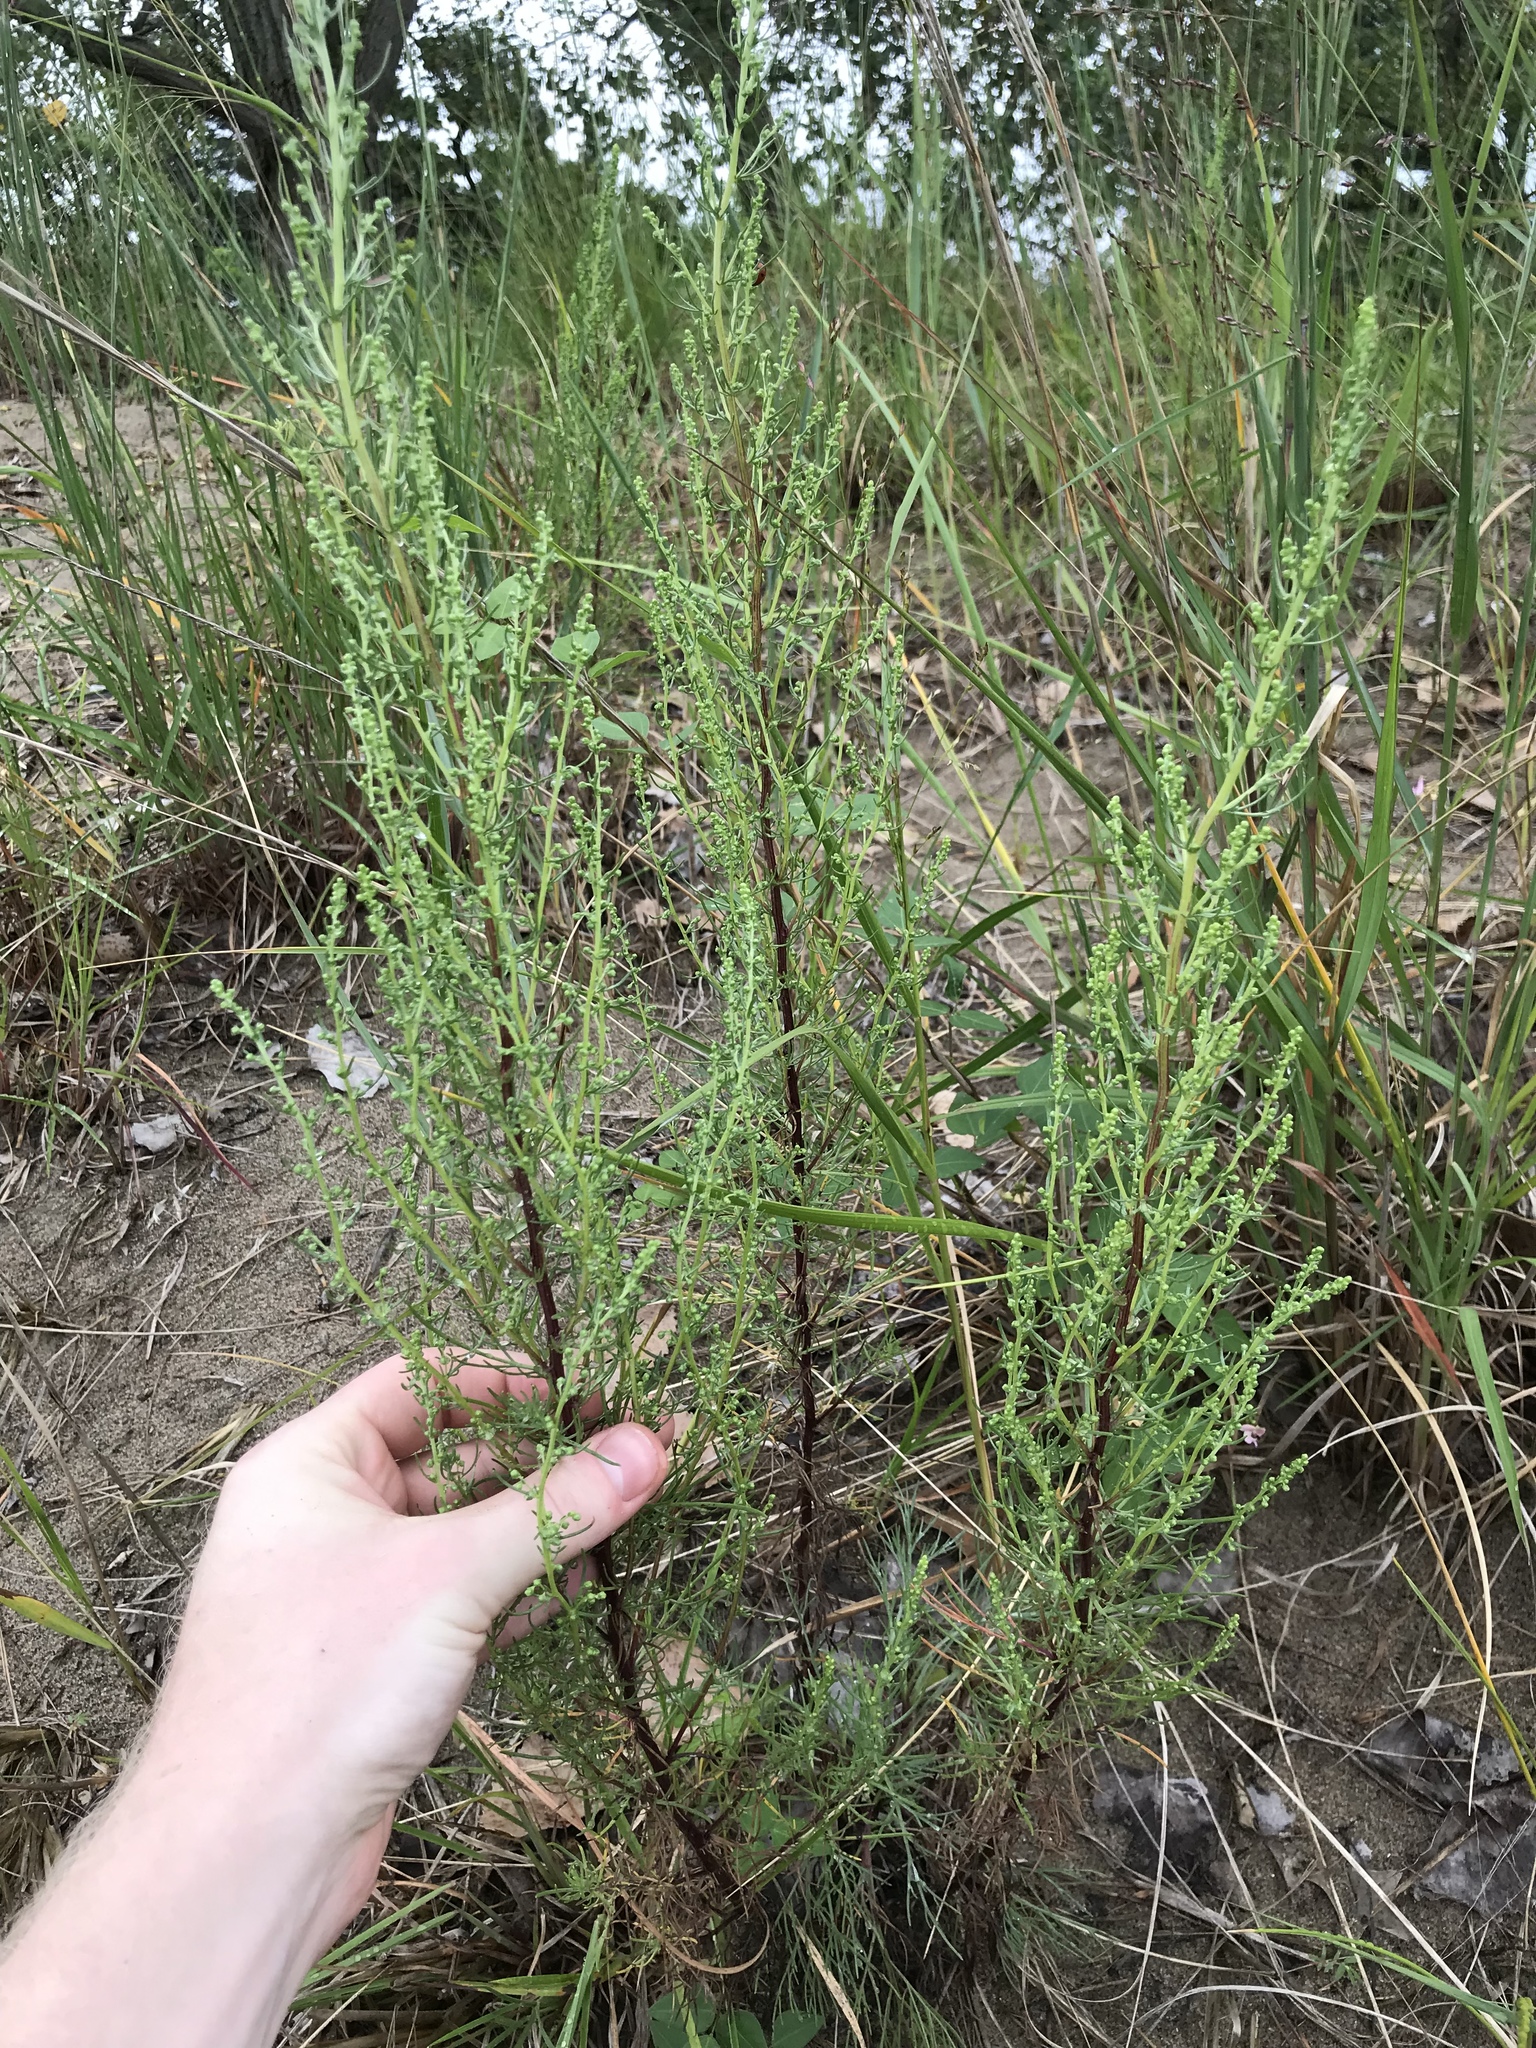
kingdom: Plantae
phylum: Tracheophyta
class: Magnoliopsida
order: Asterales
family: Asteraceae
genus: Artemisia
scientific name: Artemisia campestris
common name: Field wormwood
